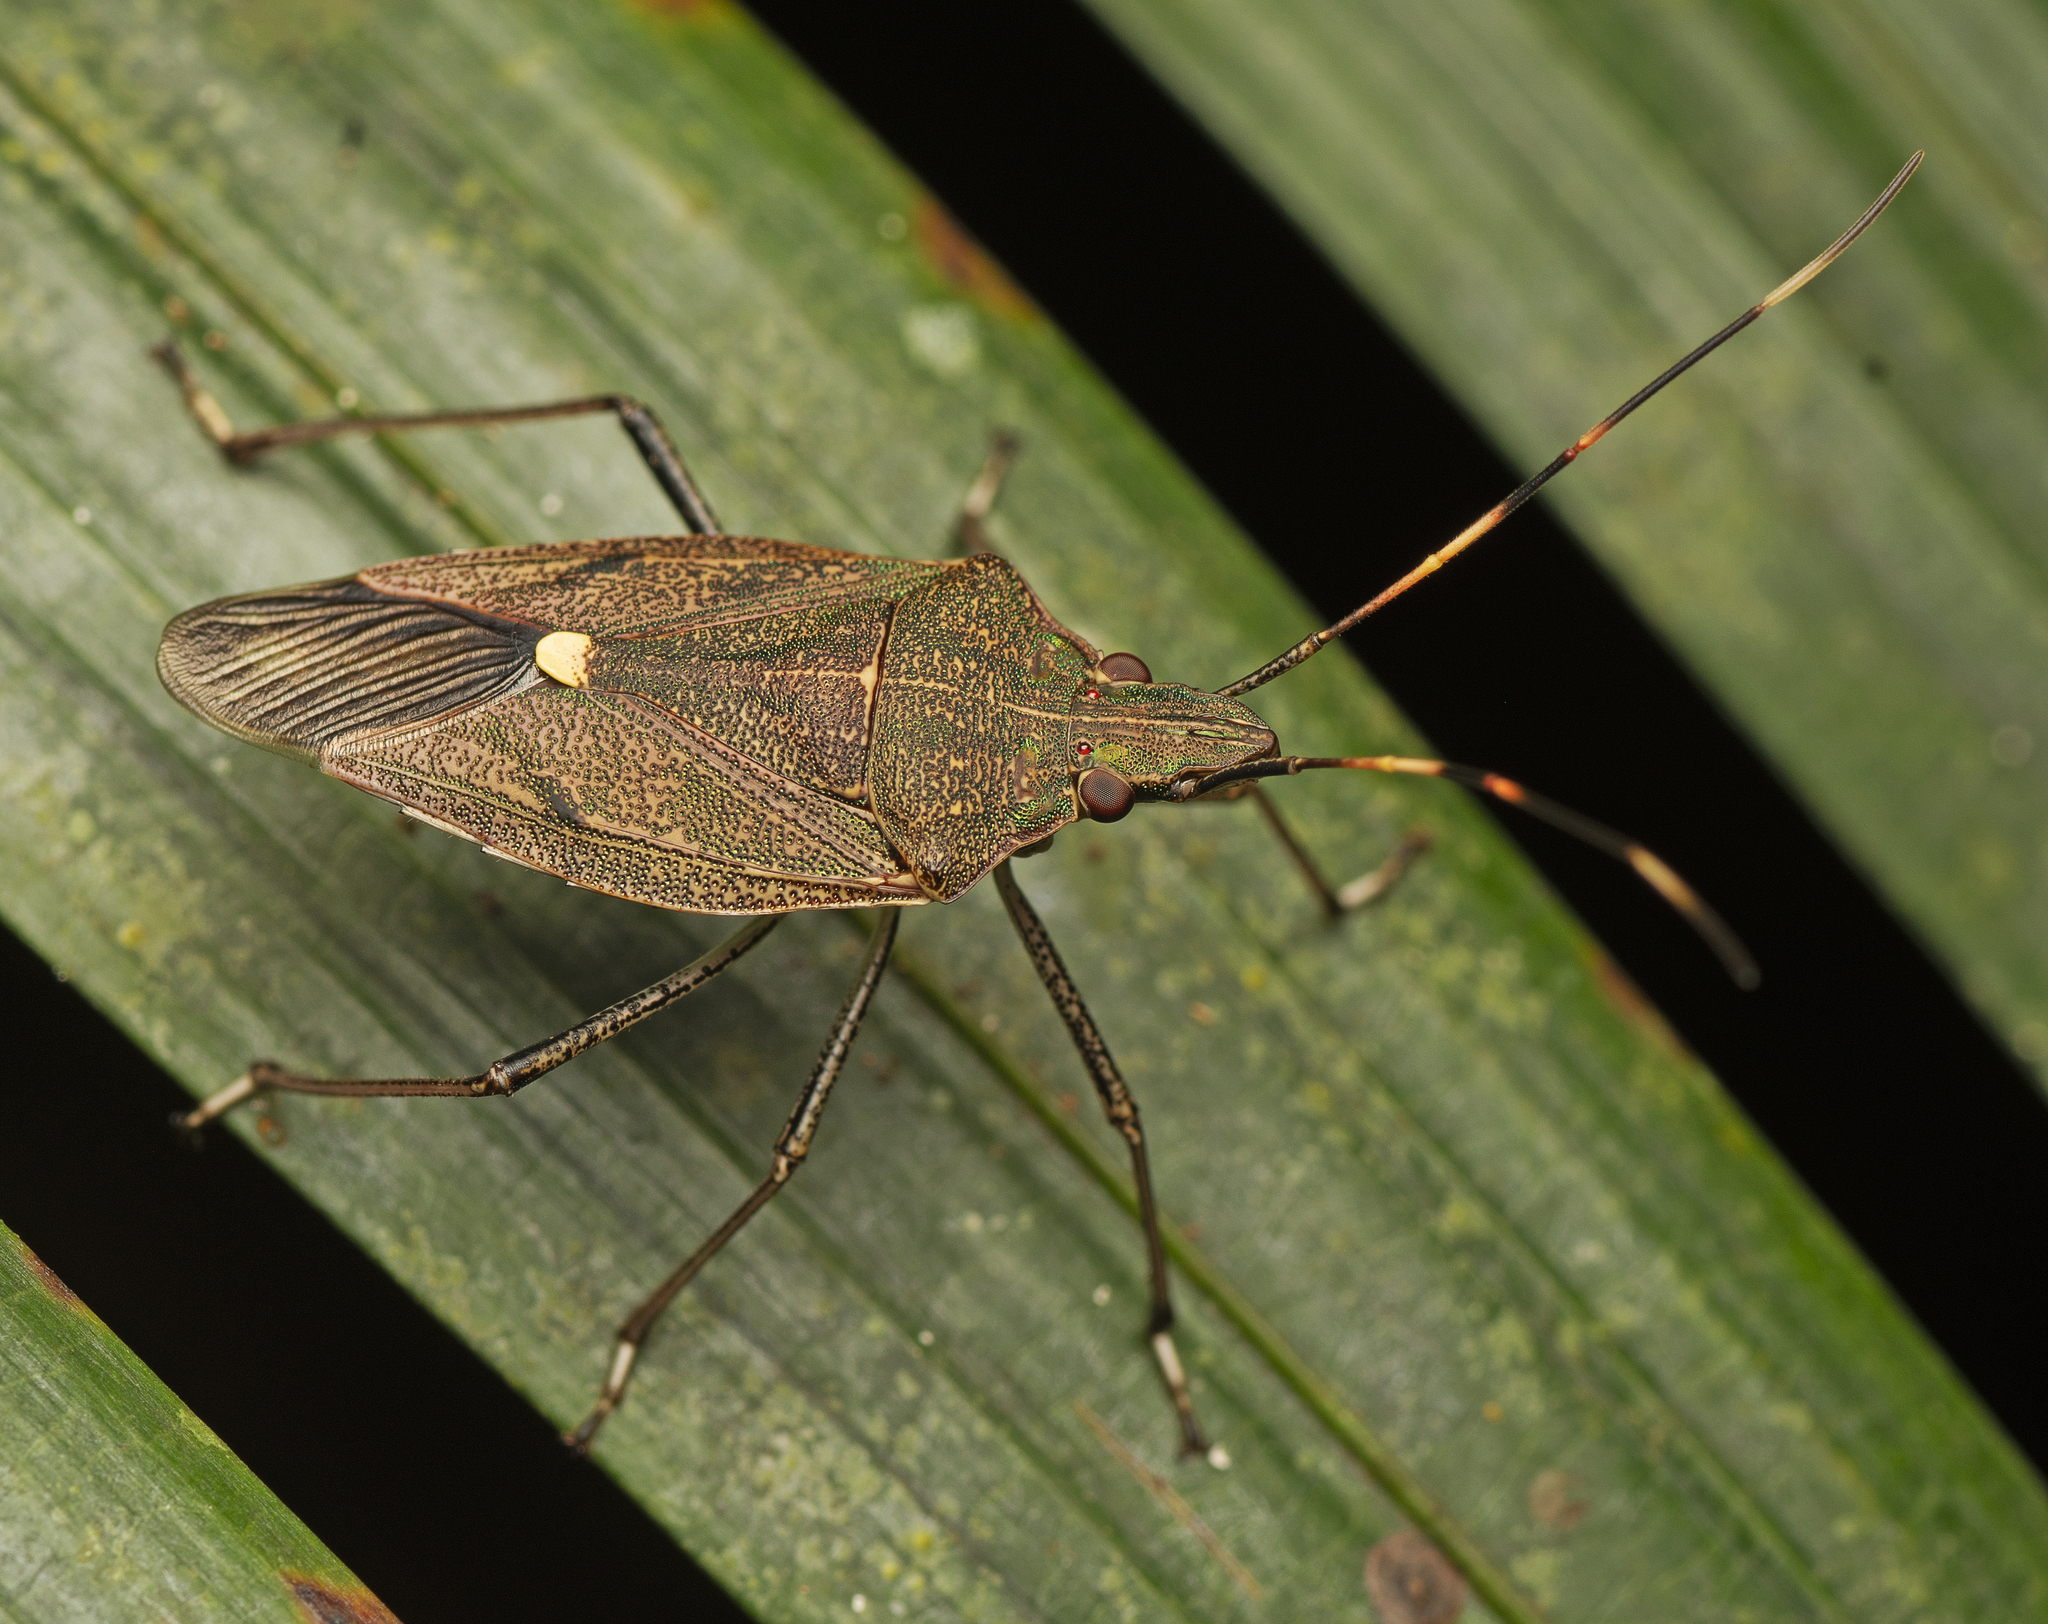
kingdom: Animalia
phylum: Arthropoda
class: Insecta
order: Hemiptera
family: Pentatomidae
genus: Poecilometis
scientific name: Poecilometis
